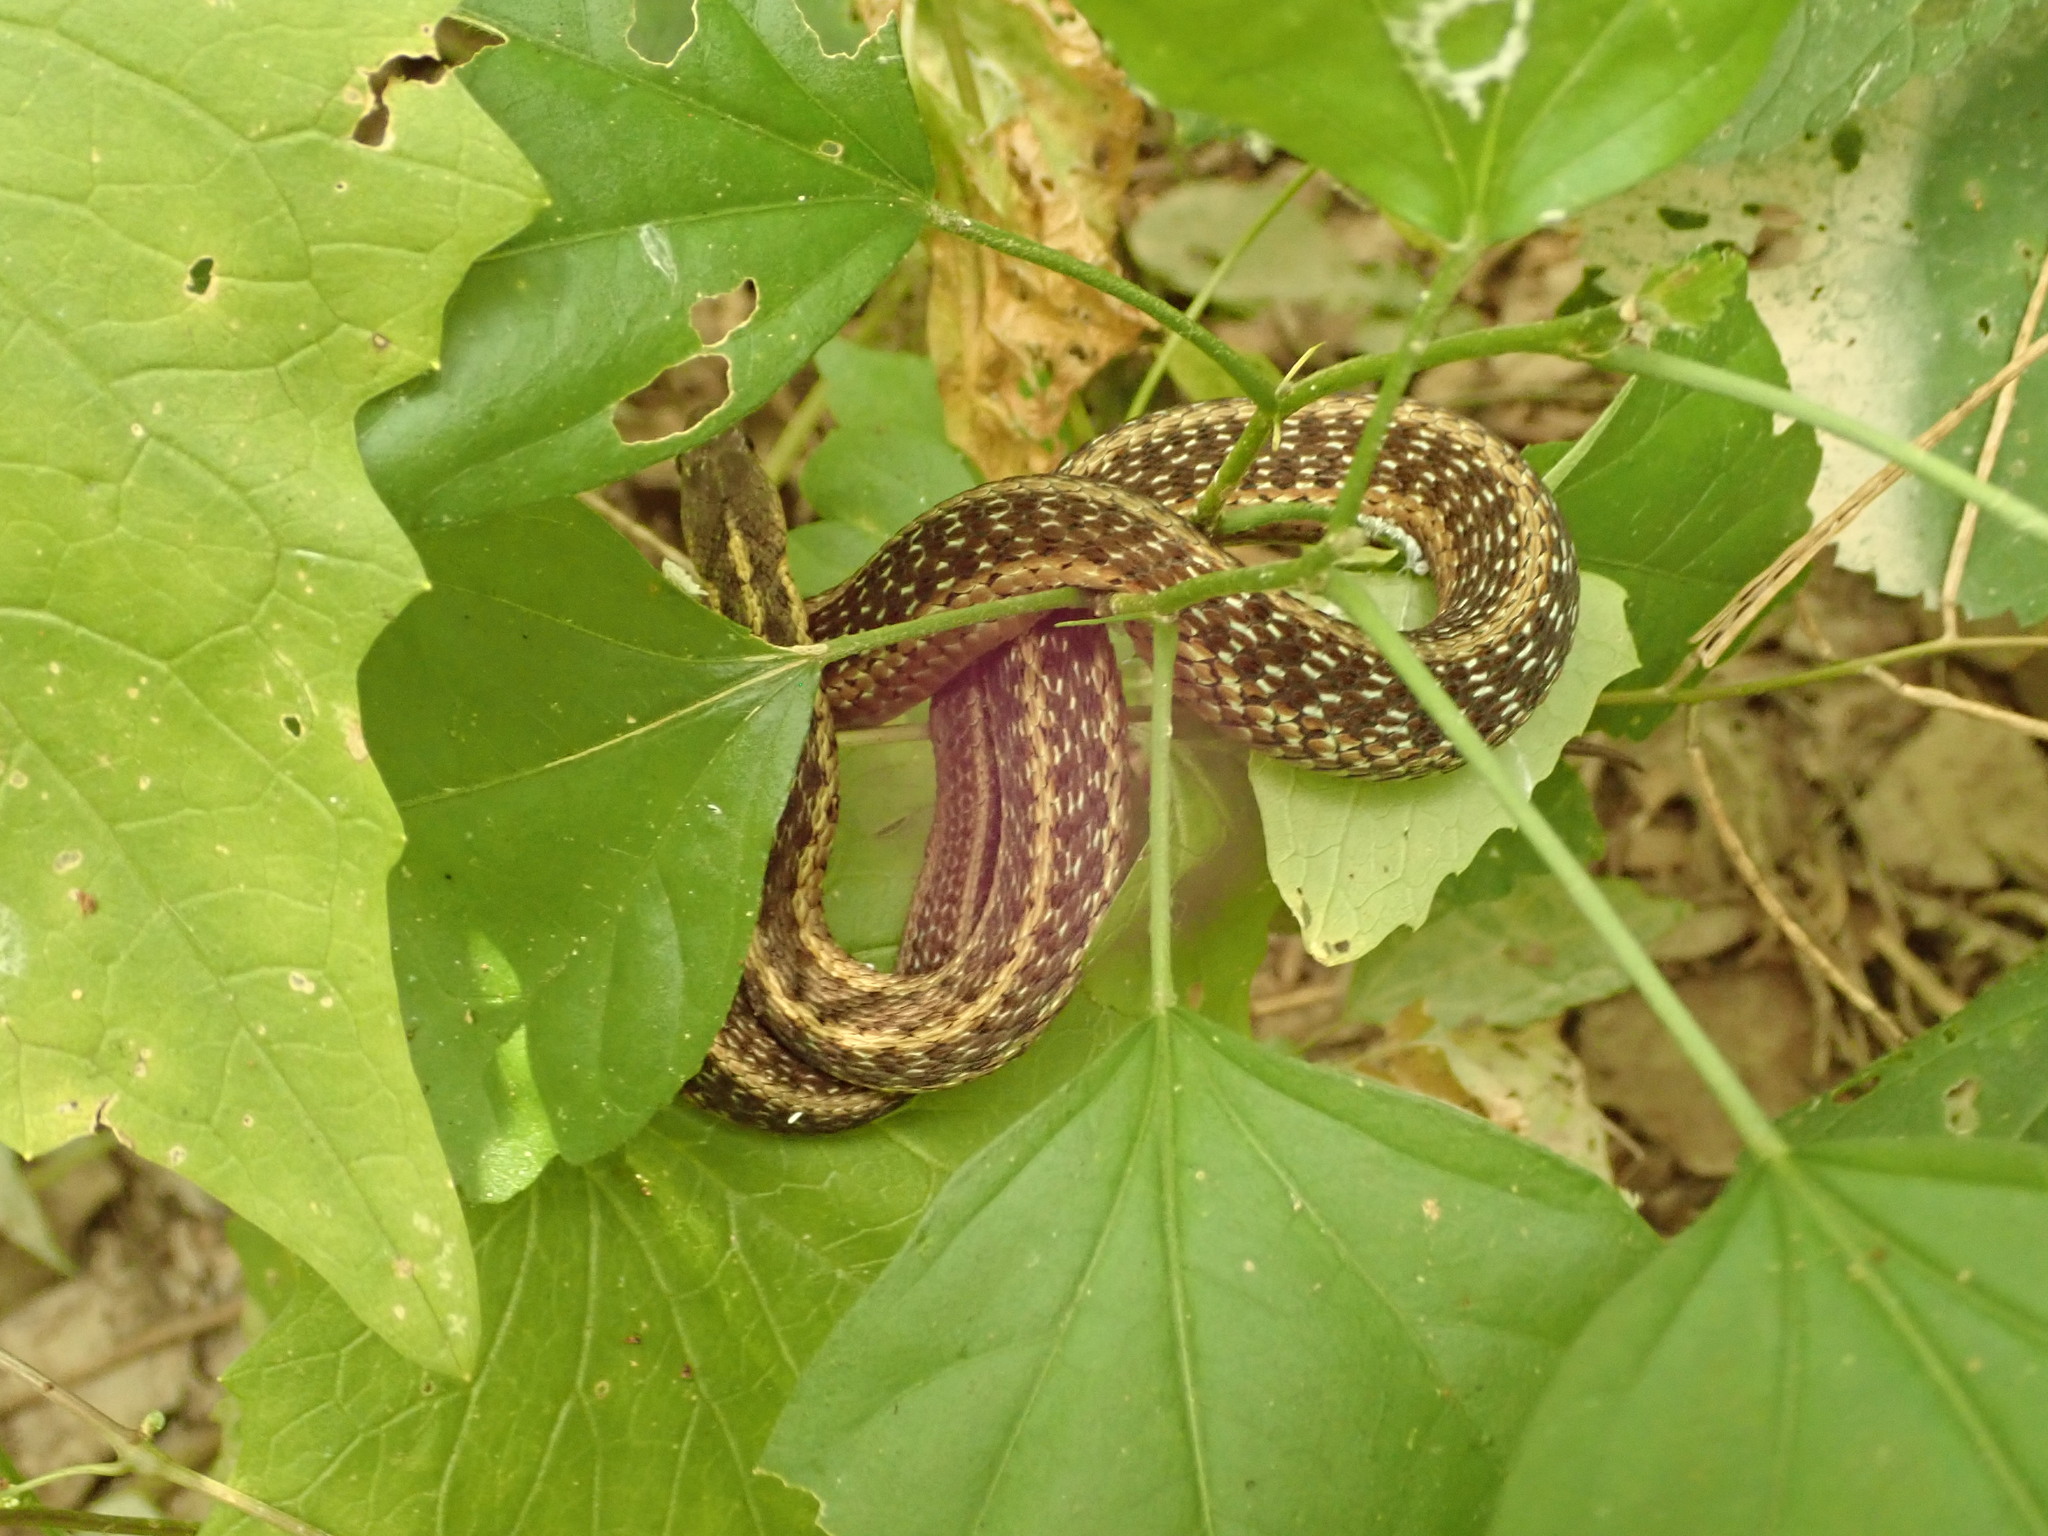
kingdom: Animalia
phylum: Chordata
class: Squamata
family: Colubridae
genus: Thamnophis
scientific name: Thamnophis sirtalis
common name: Common garter snake
